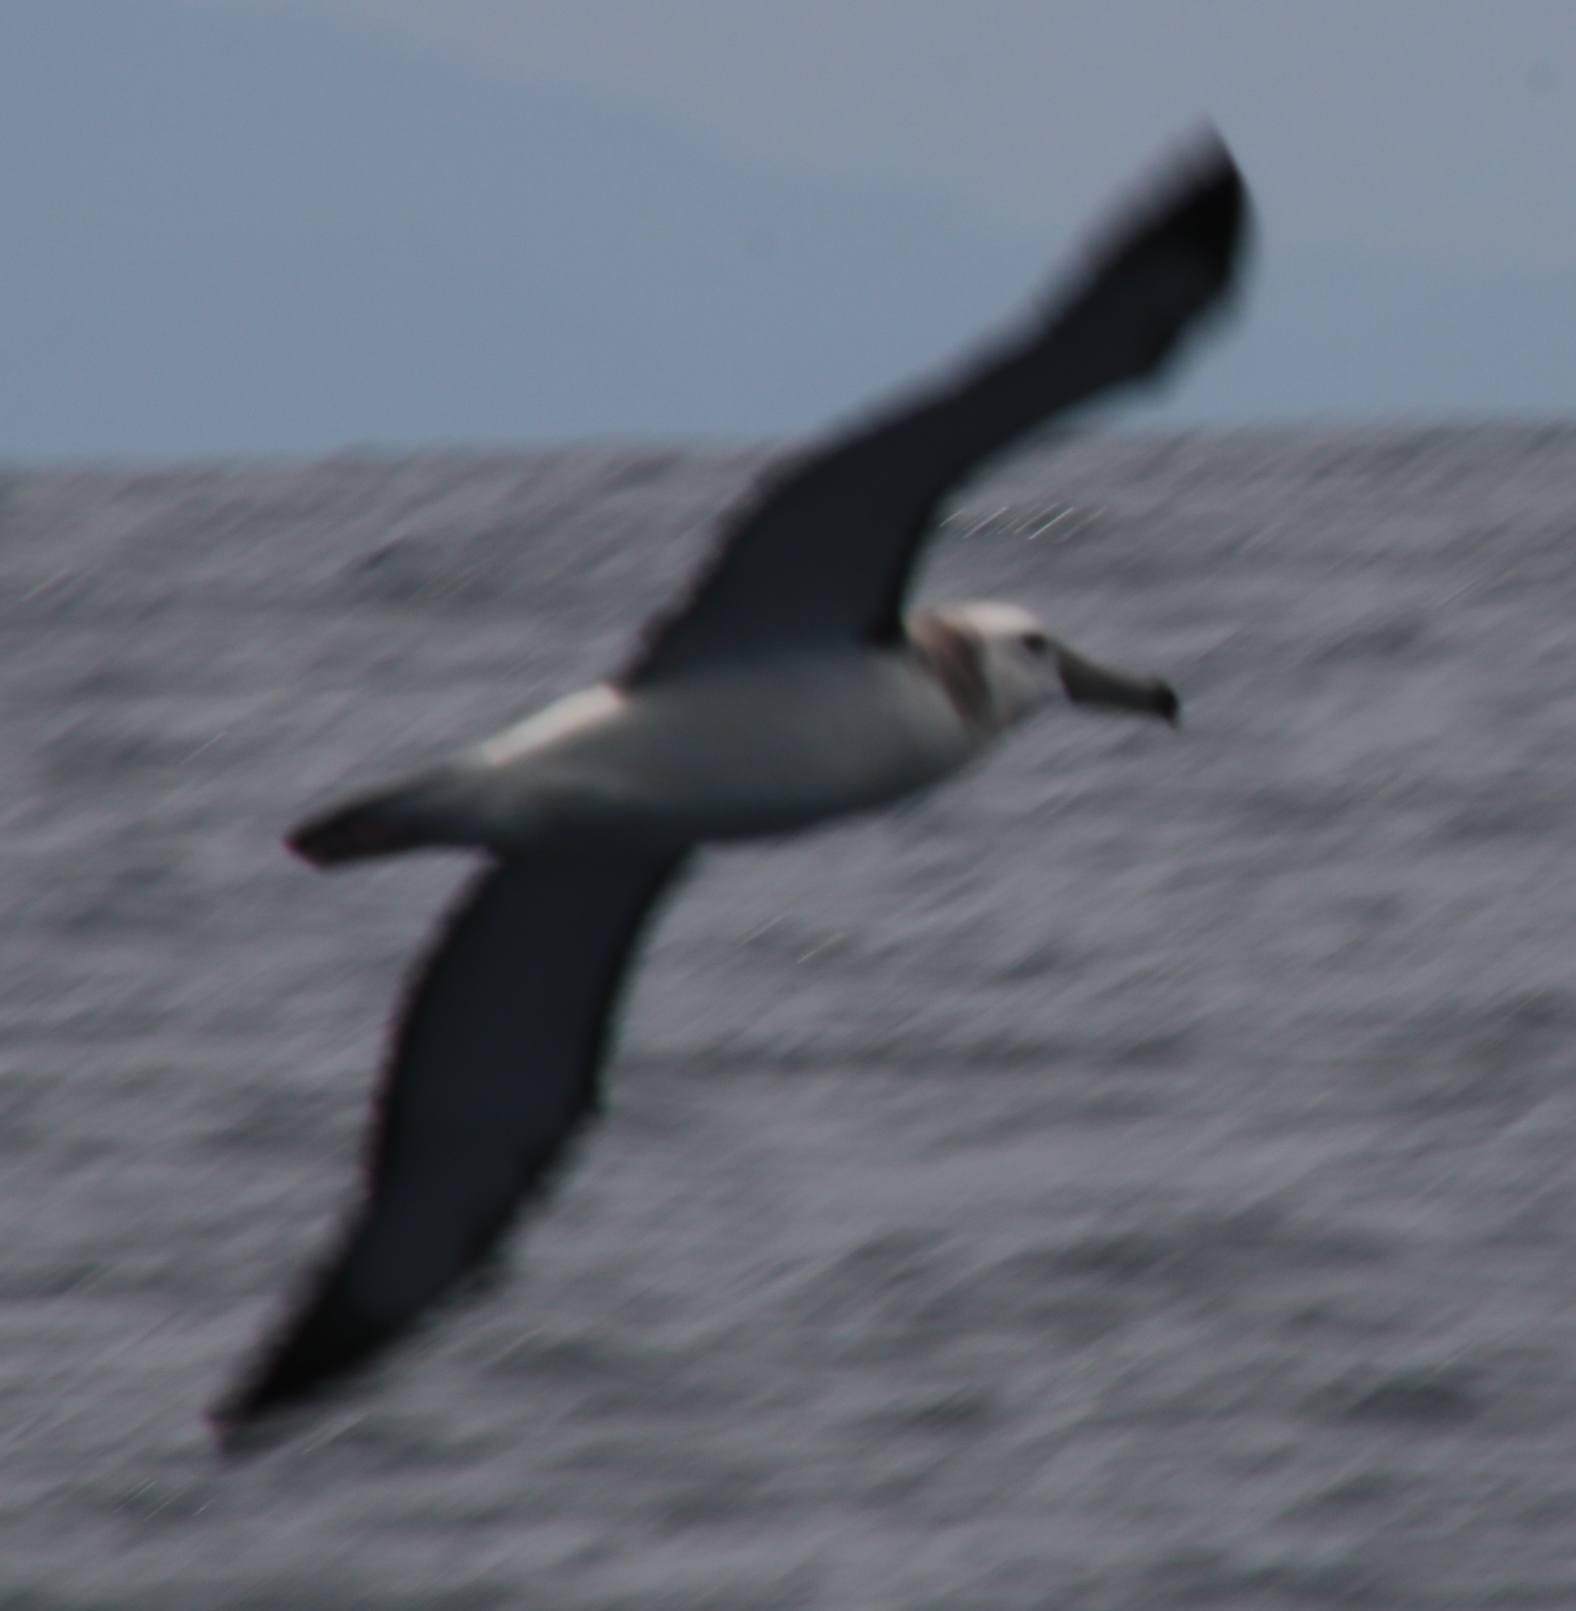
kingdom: Animalia
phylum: Chordata
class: Aves
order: Procellariiformes
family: Diomedeidae
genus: Thalassarche
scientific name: Thalassarche melanophris
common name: Black-browed albatross
